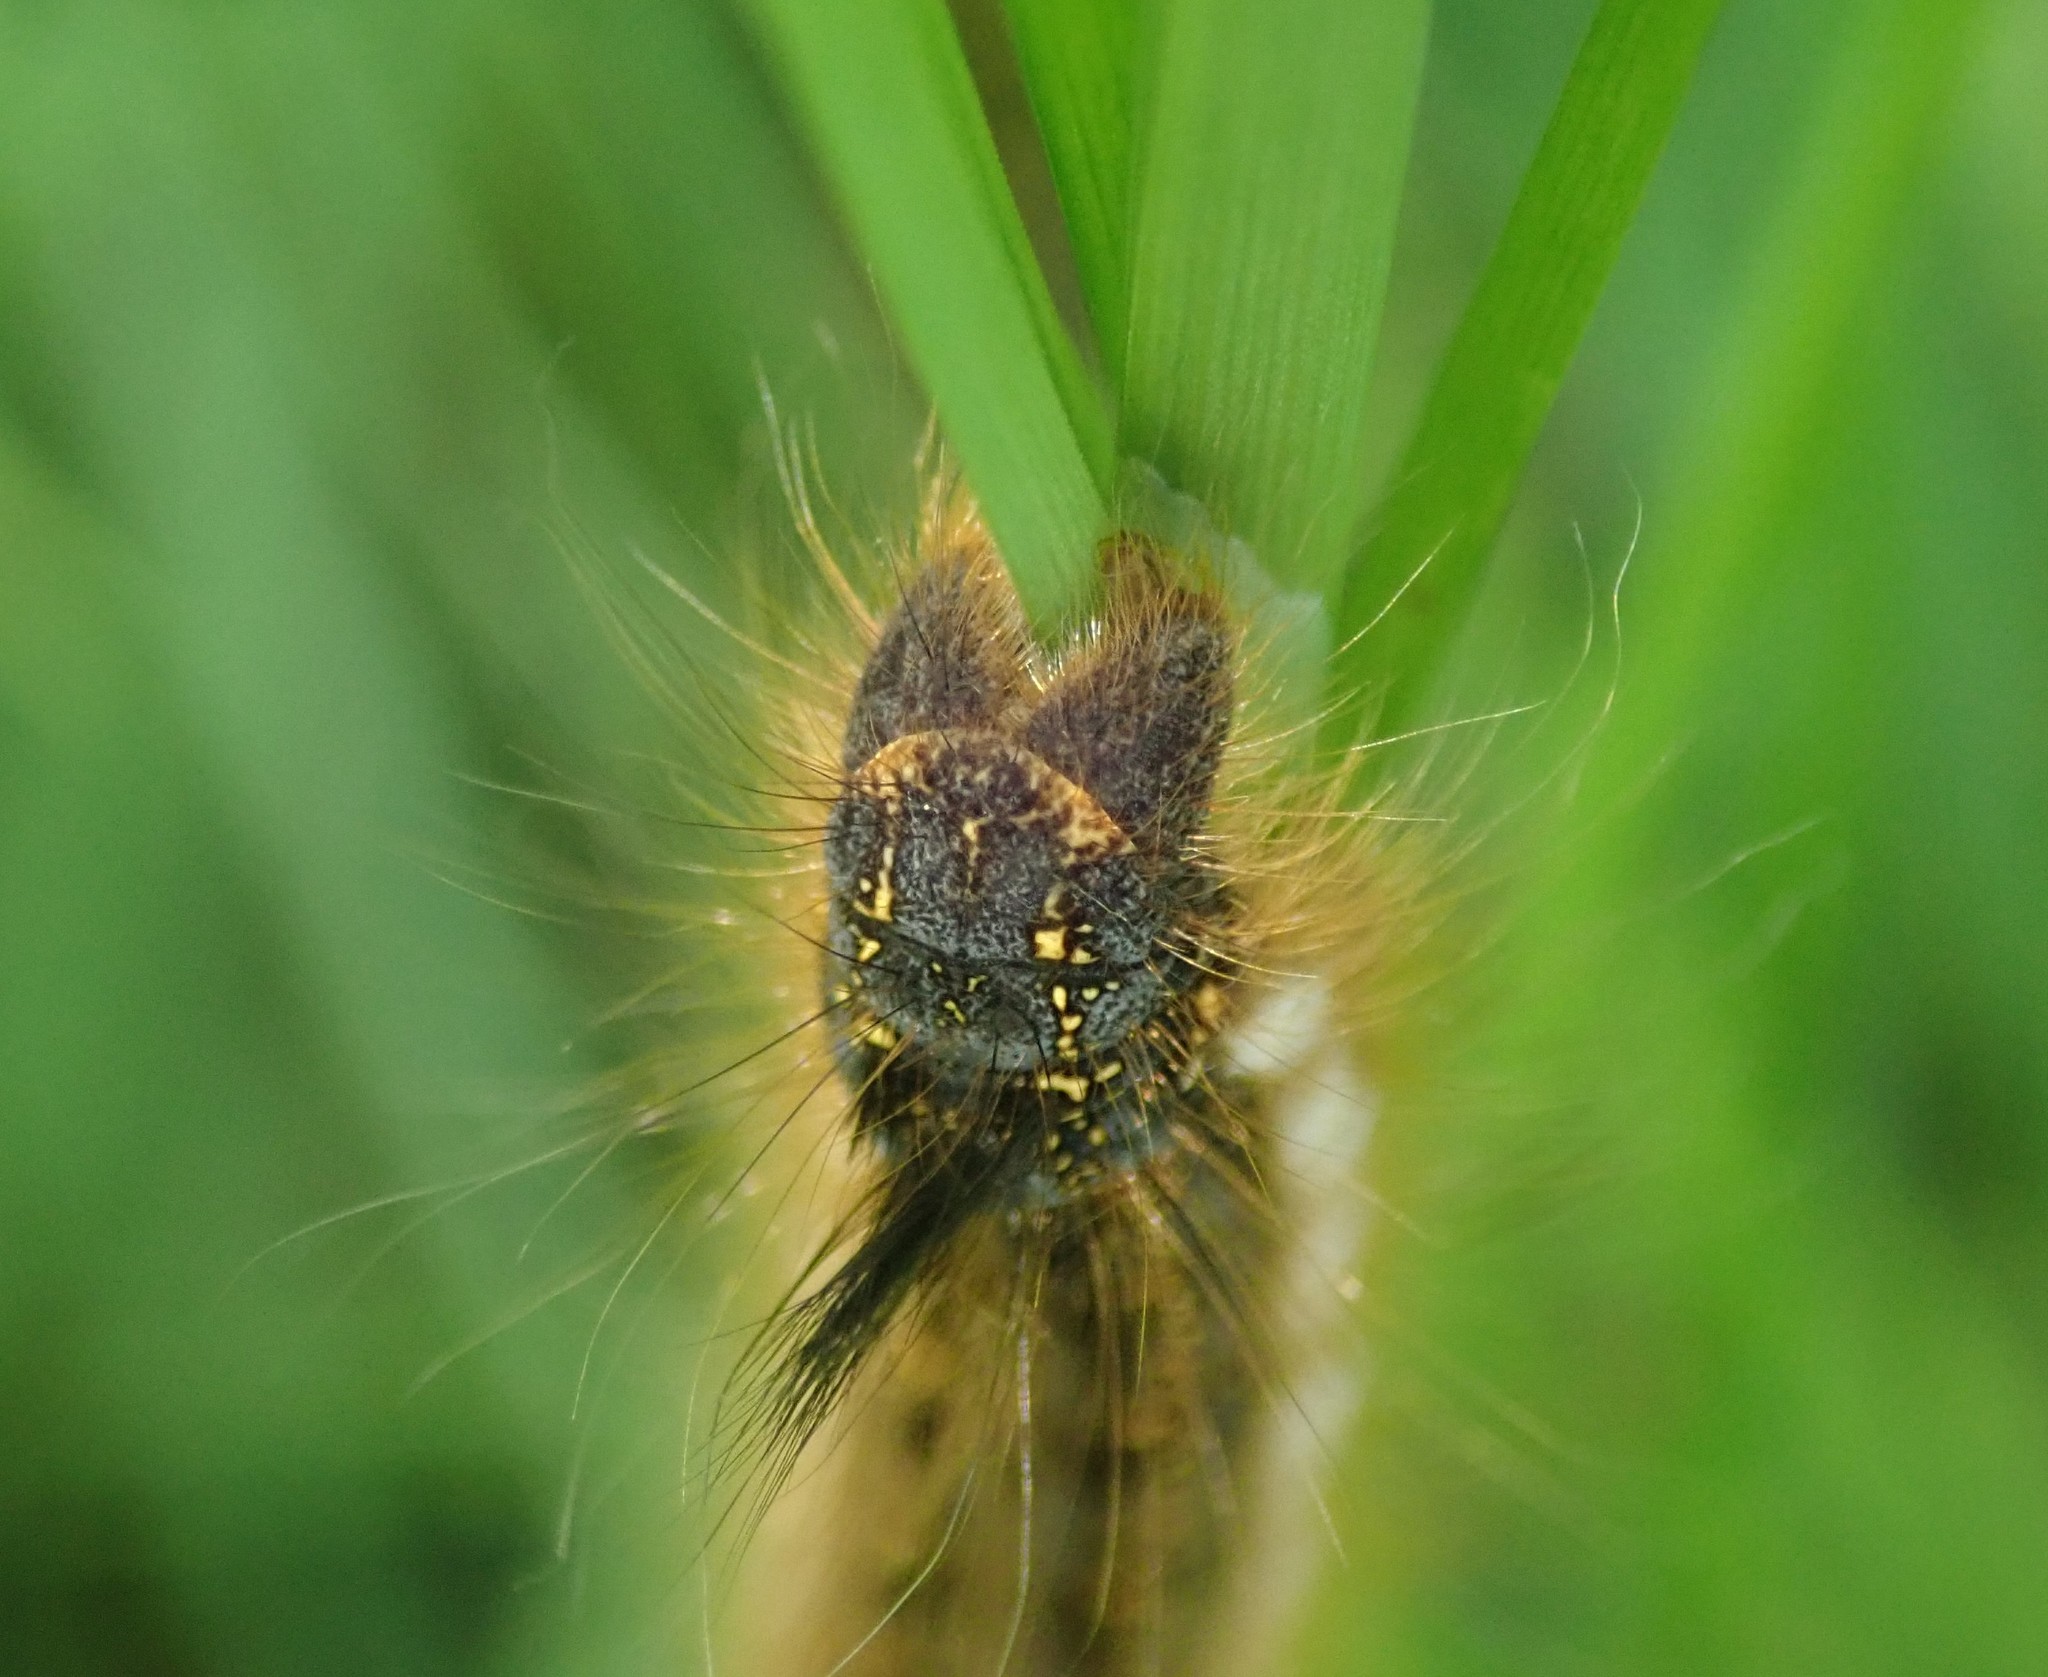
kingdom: Animalia
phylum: Arthropoda
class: Insecta
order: Lepidoptera
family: Lasiocampidae
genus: Euthrix
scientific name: Euthrix potatoria
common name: Drinker
